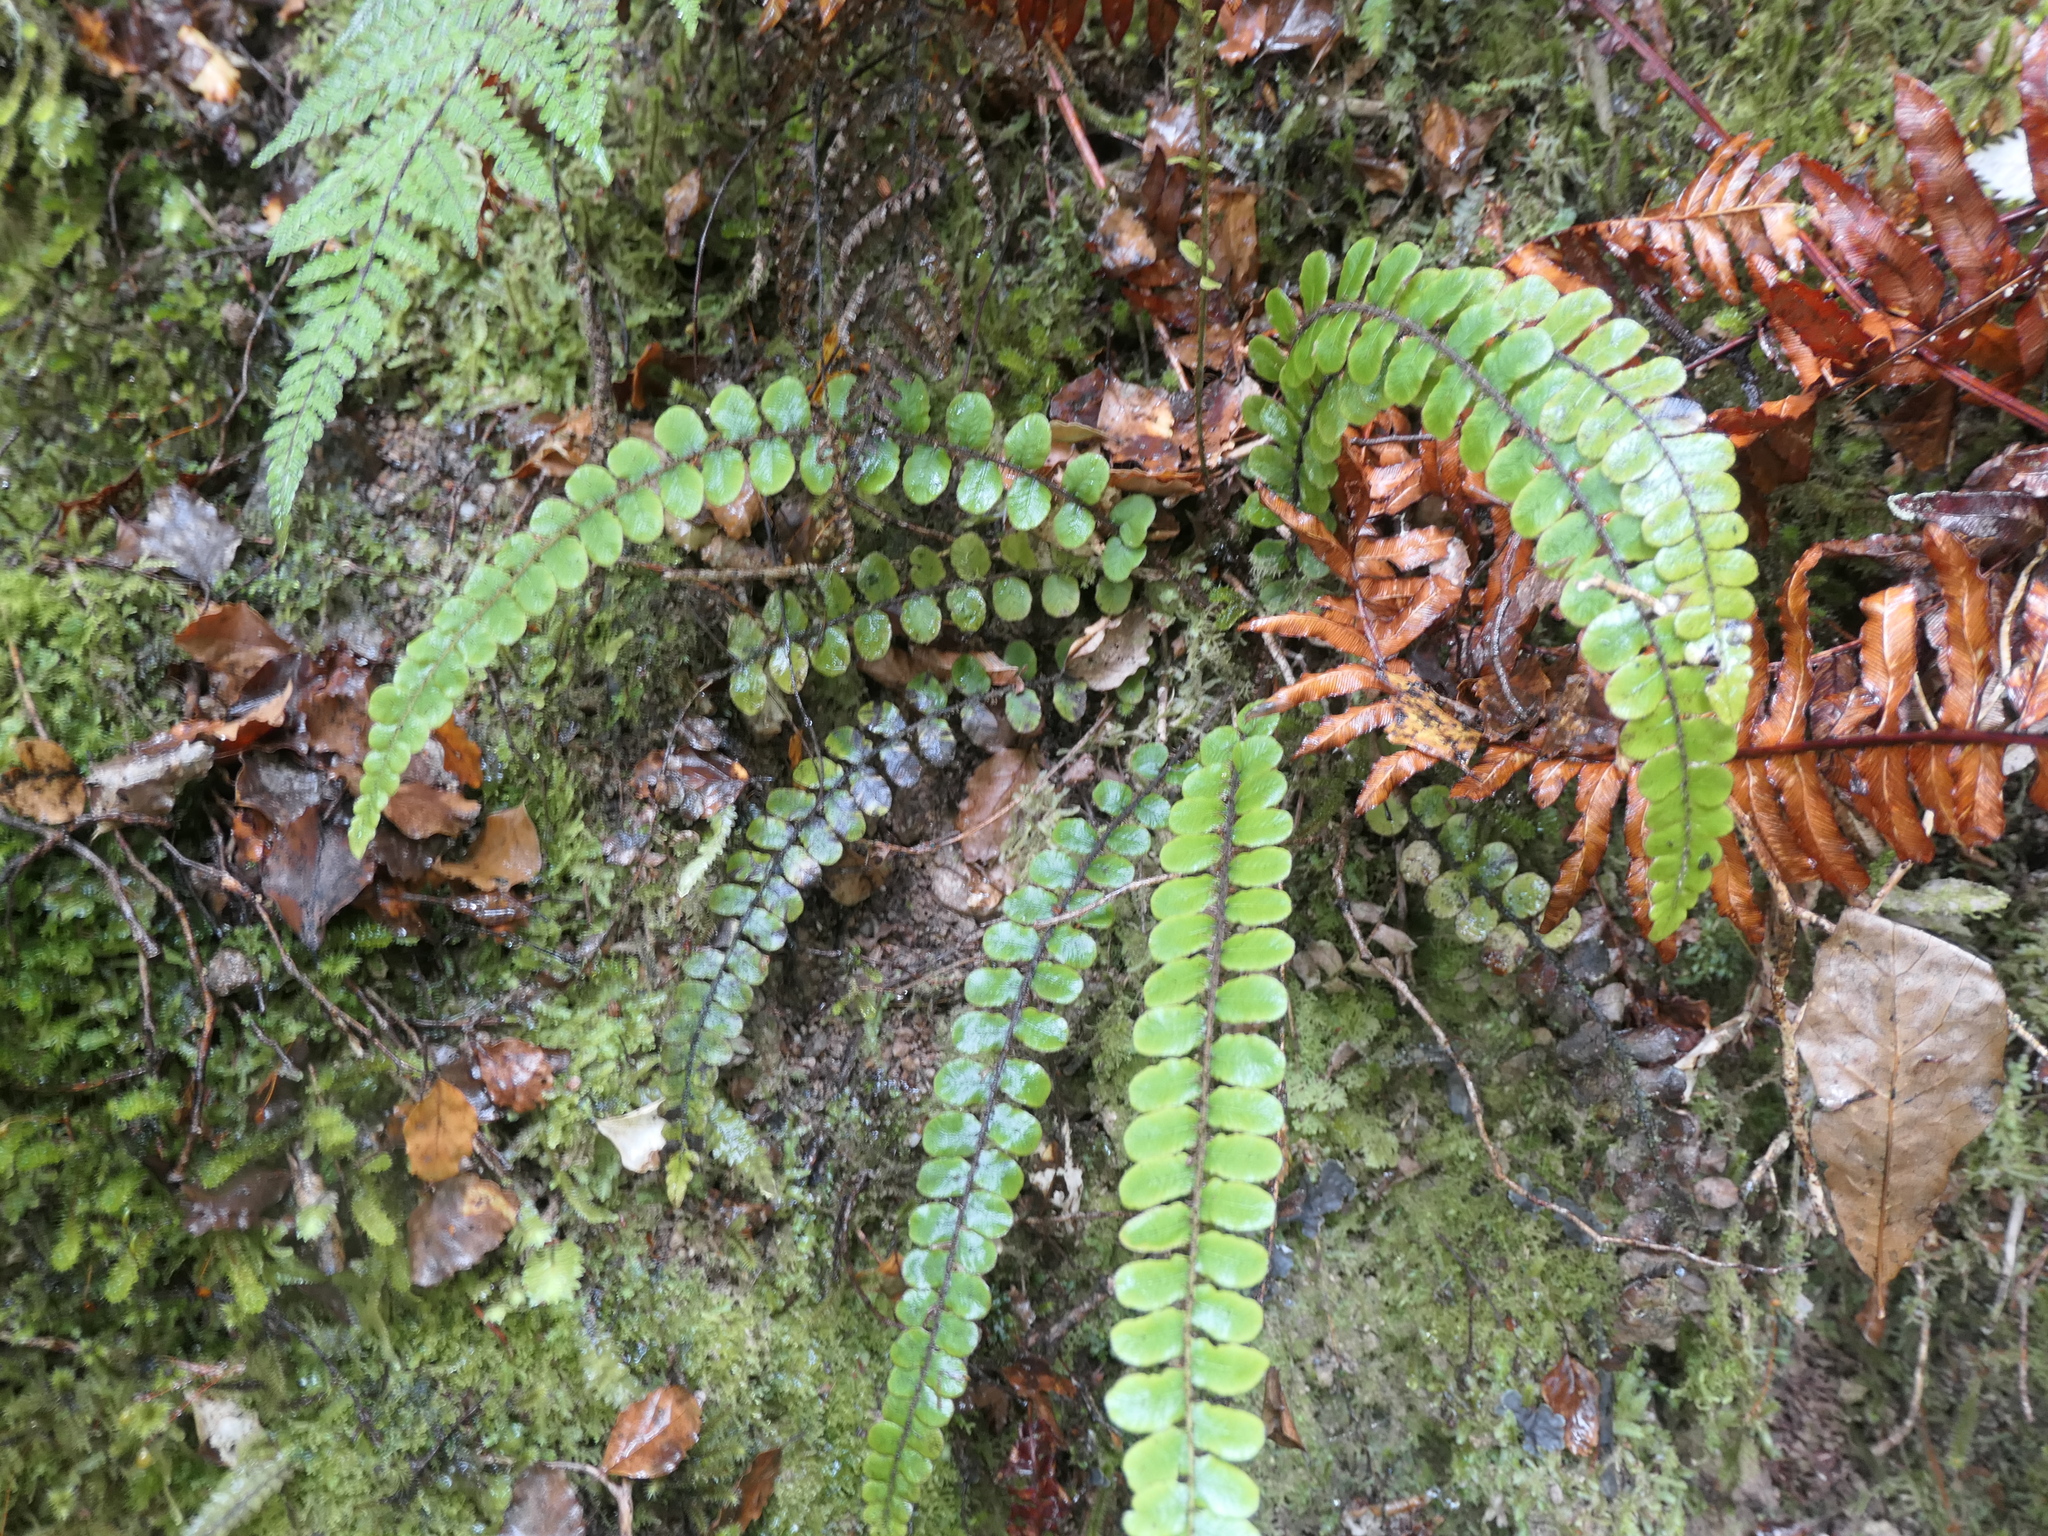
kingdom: Plantae
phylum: Tracheophyta
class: Polypodiopsida
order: Polypodiales
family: Blechnaceae
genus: Cranfillia
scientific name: Cranfillia fluviatilis
